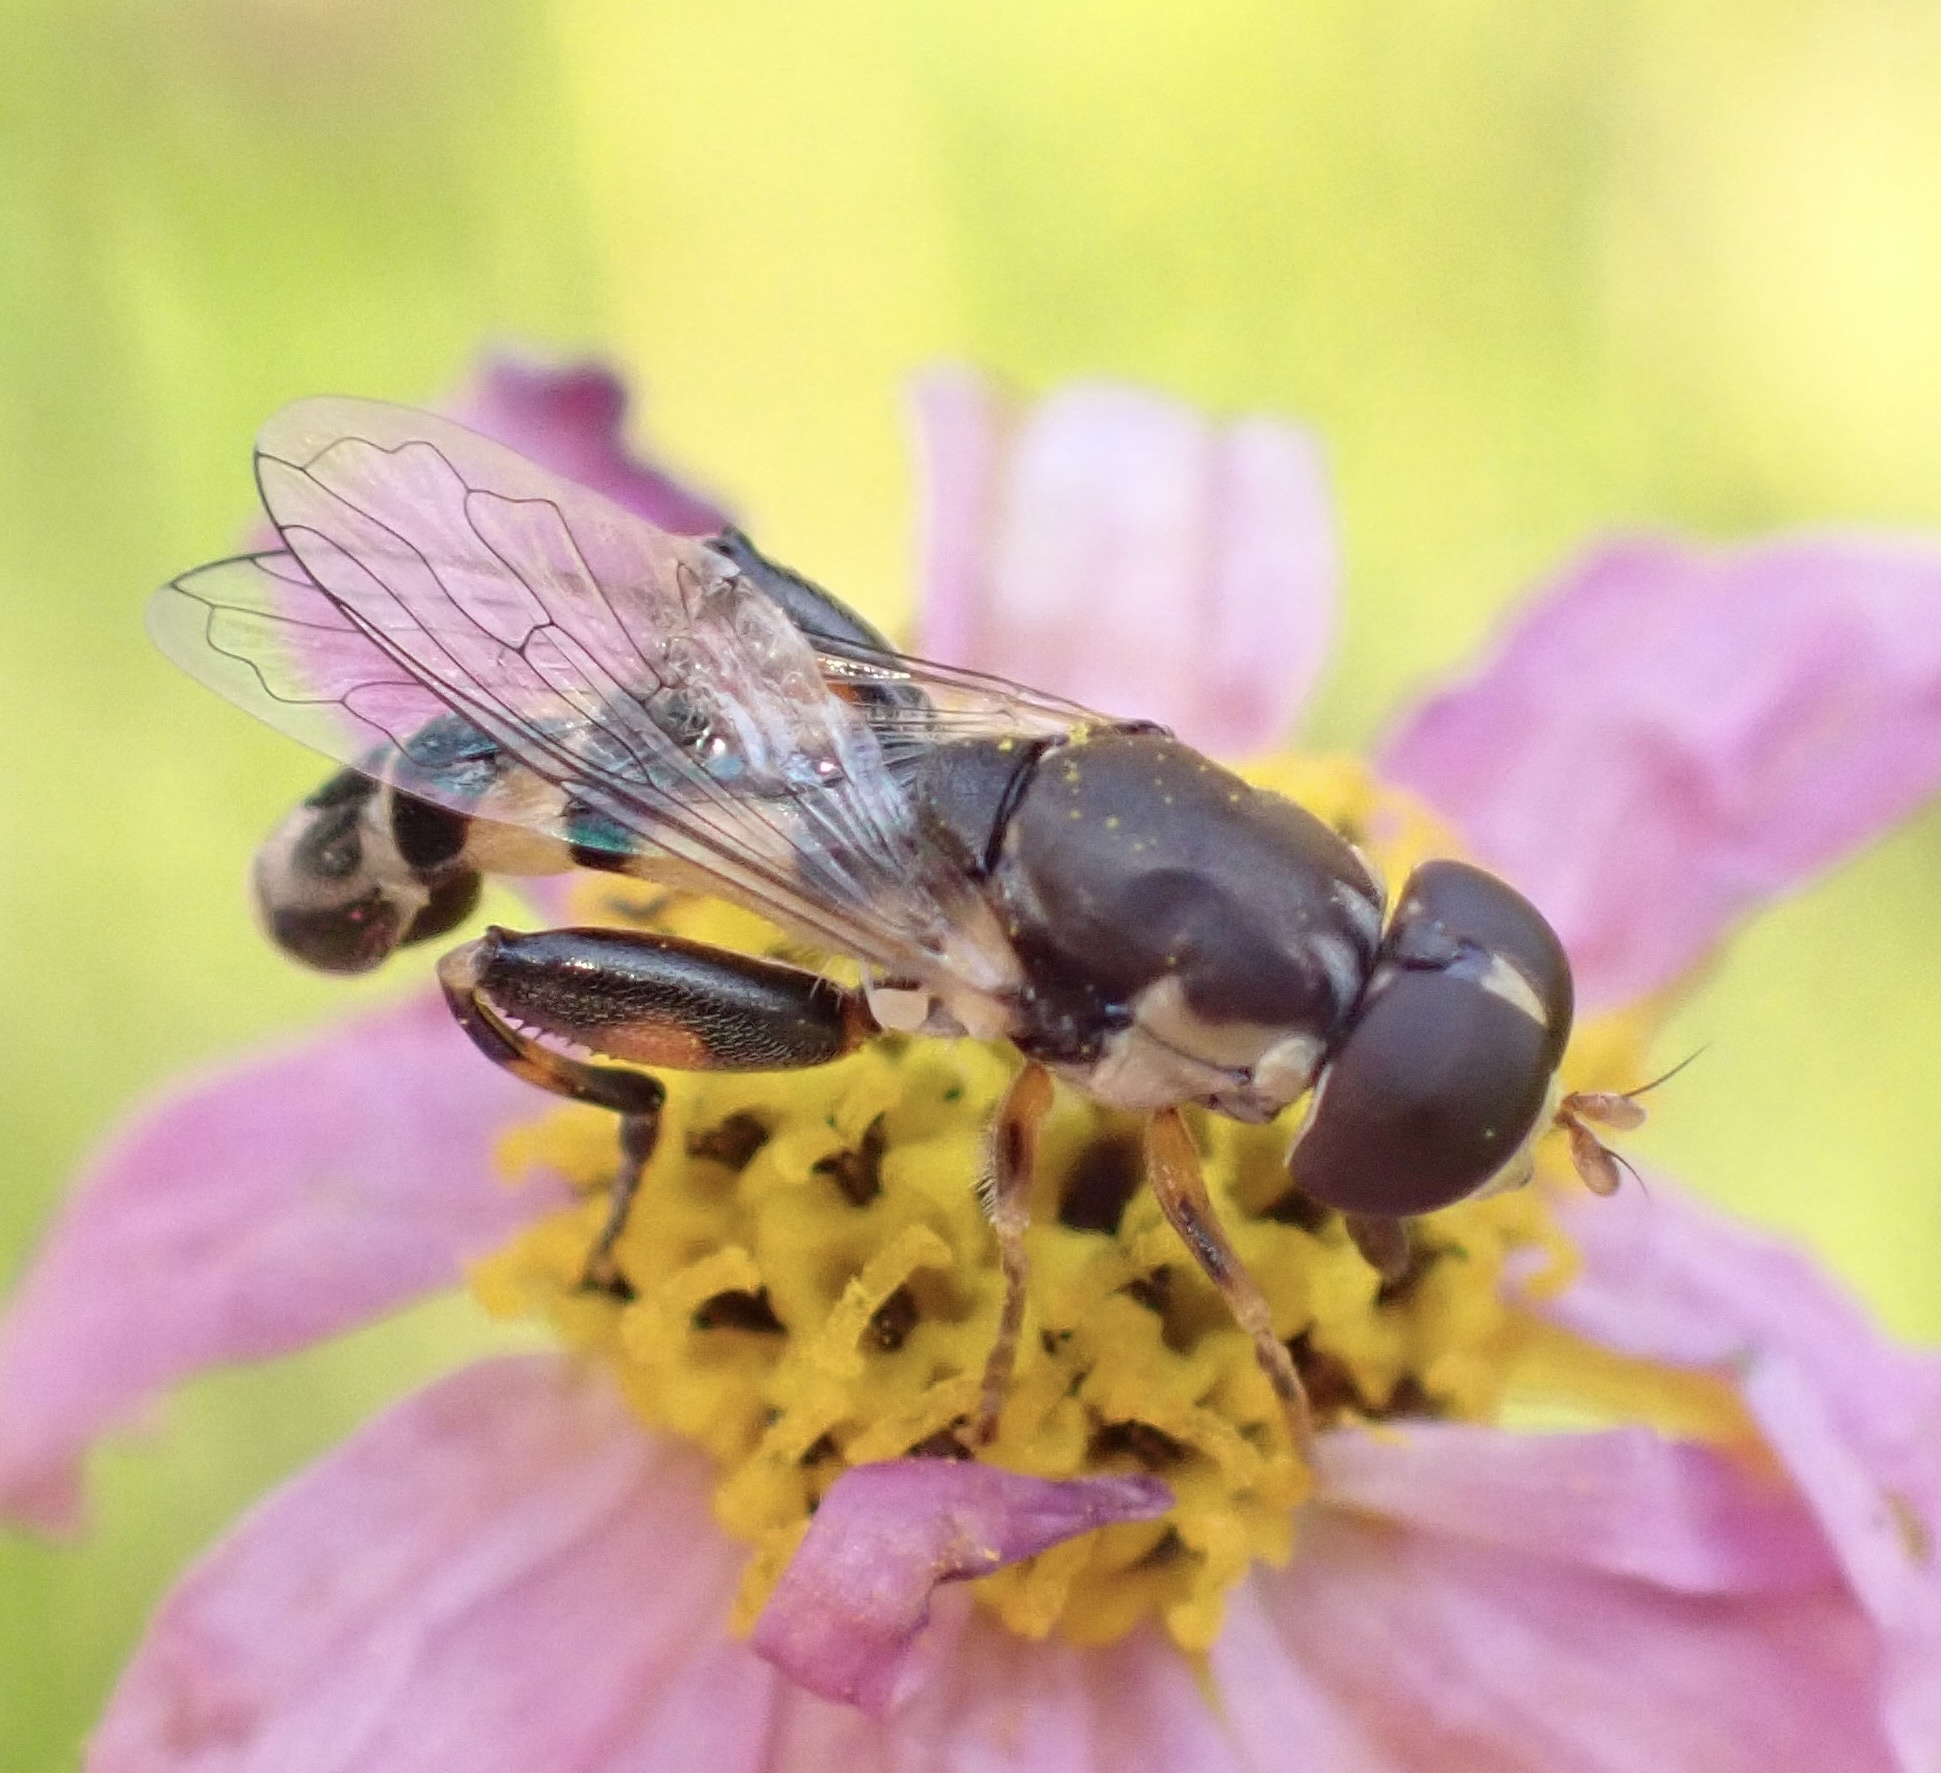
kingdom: Animalia
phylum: Arthropoda
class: Insecta
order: Diptera
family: Syrphidae
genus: Syritta
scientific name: Syritta pipiens
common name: Hover fly
